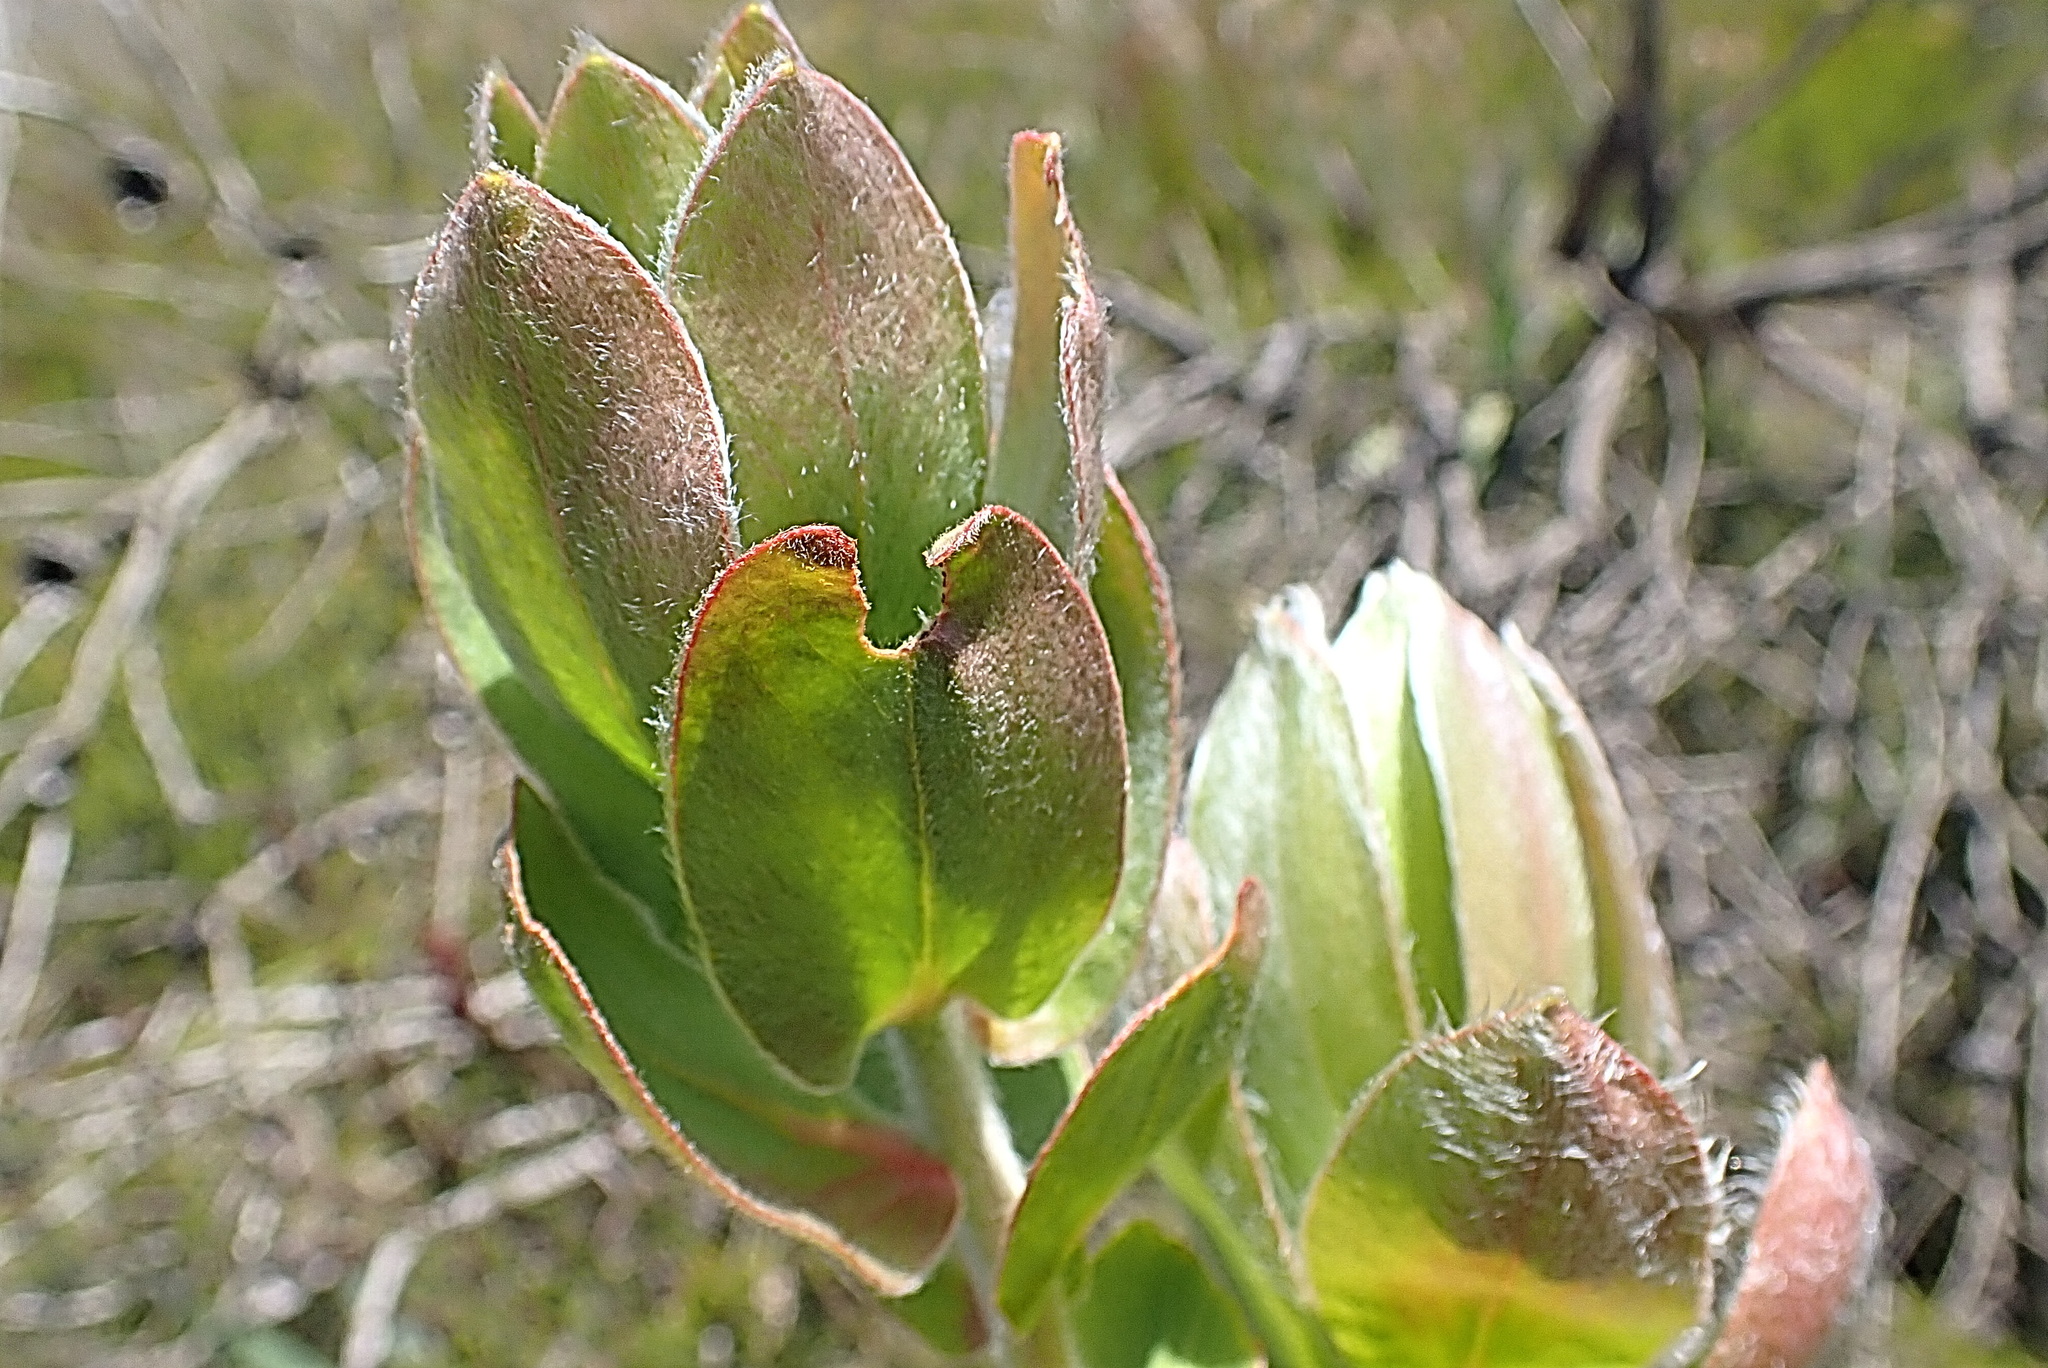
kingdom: Plantae
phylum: Tracheophyta
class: Magnoliopsida
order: Proteales
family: Proteaceae
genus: Protea
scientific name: Protea aurea
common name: Shuttlecock sugarbush
